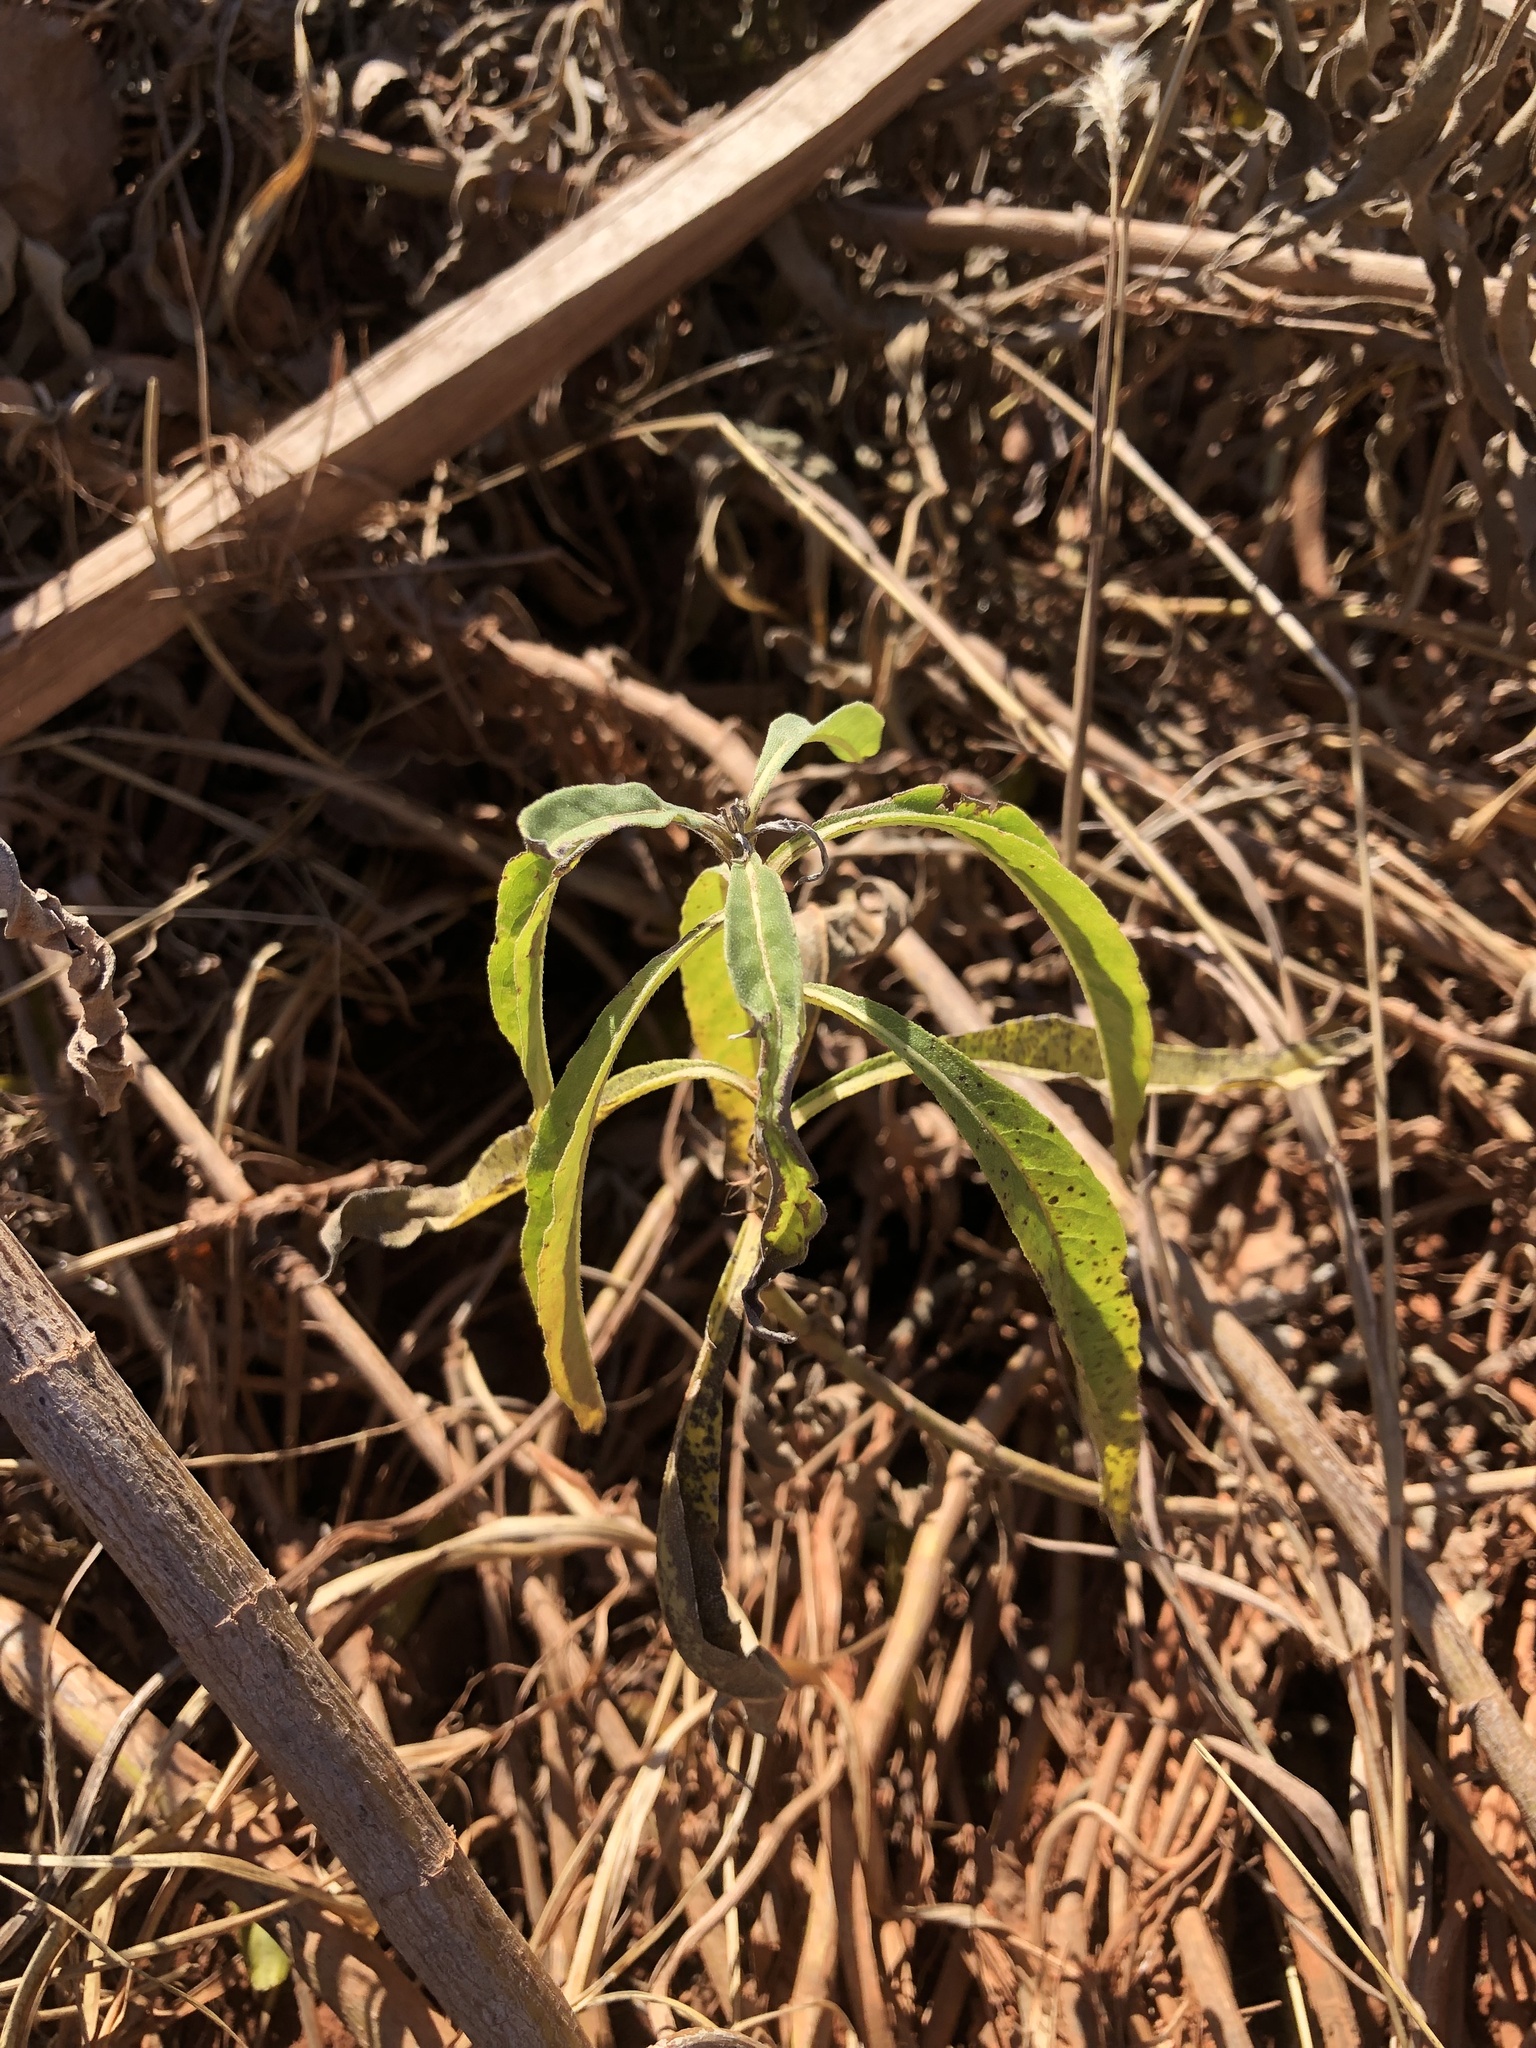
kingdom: Plantae
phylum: Tracheophyta
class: Magnoliopsida
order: Asterales
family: Asteraceae
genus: Helianthus
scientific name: Helianthus maximiliani
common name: Maximilian's sunflower
